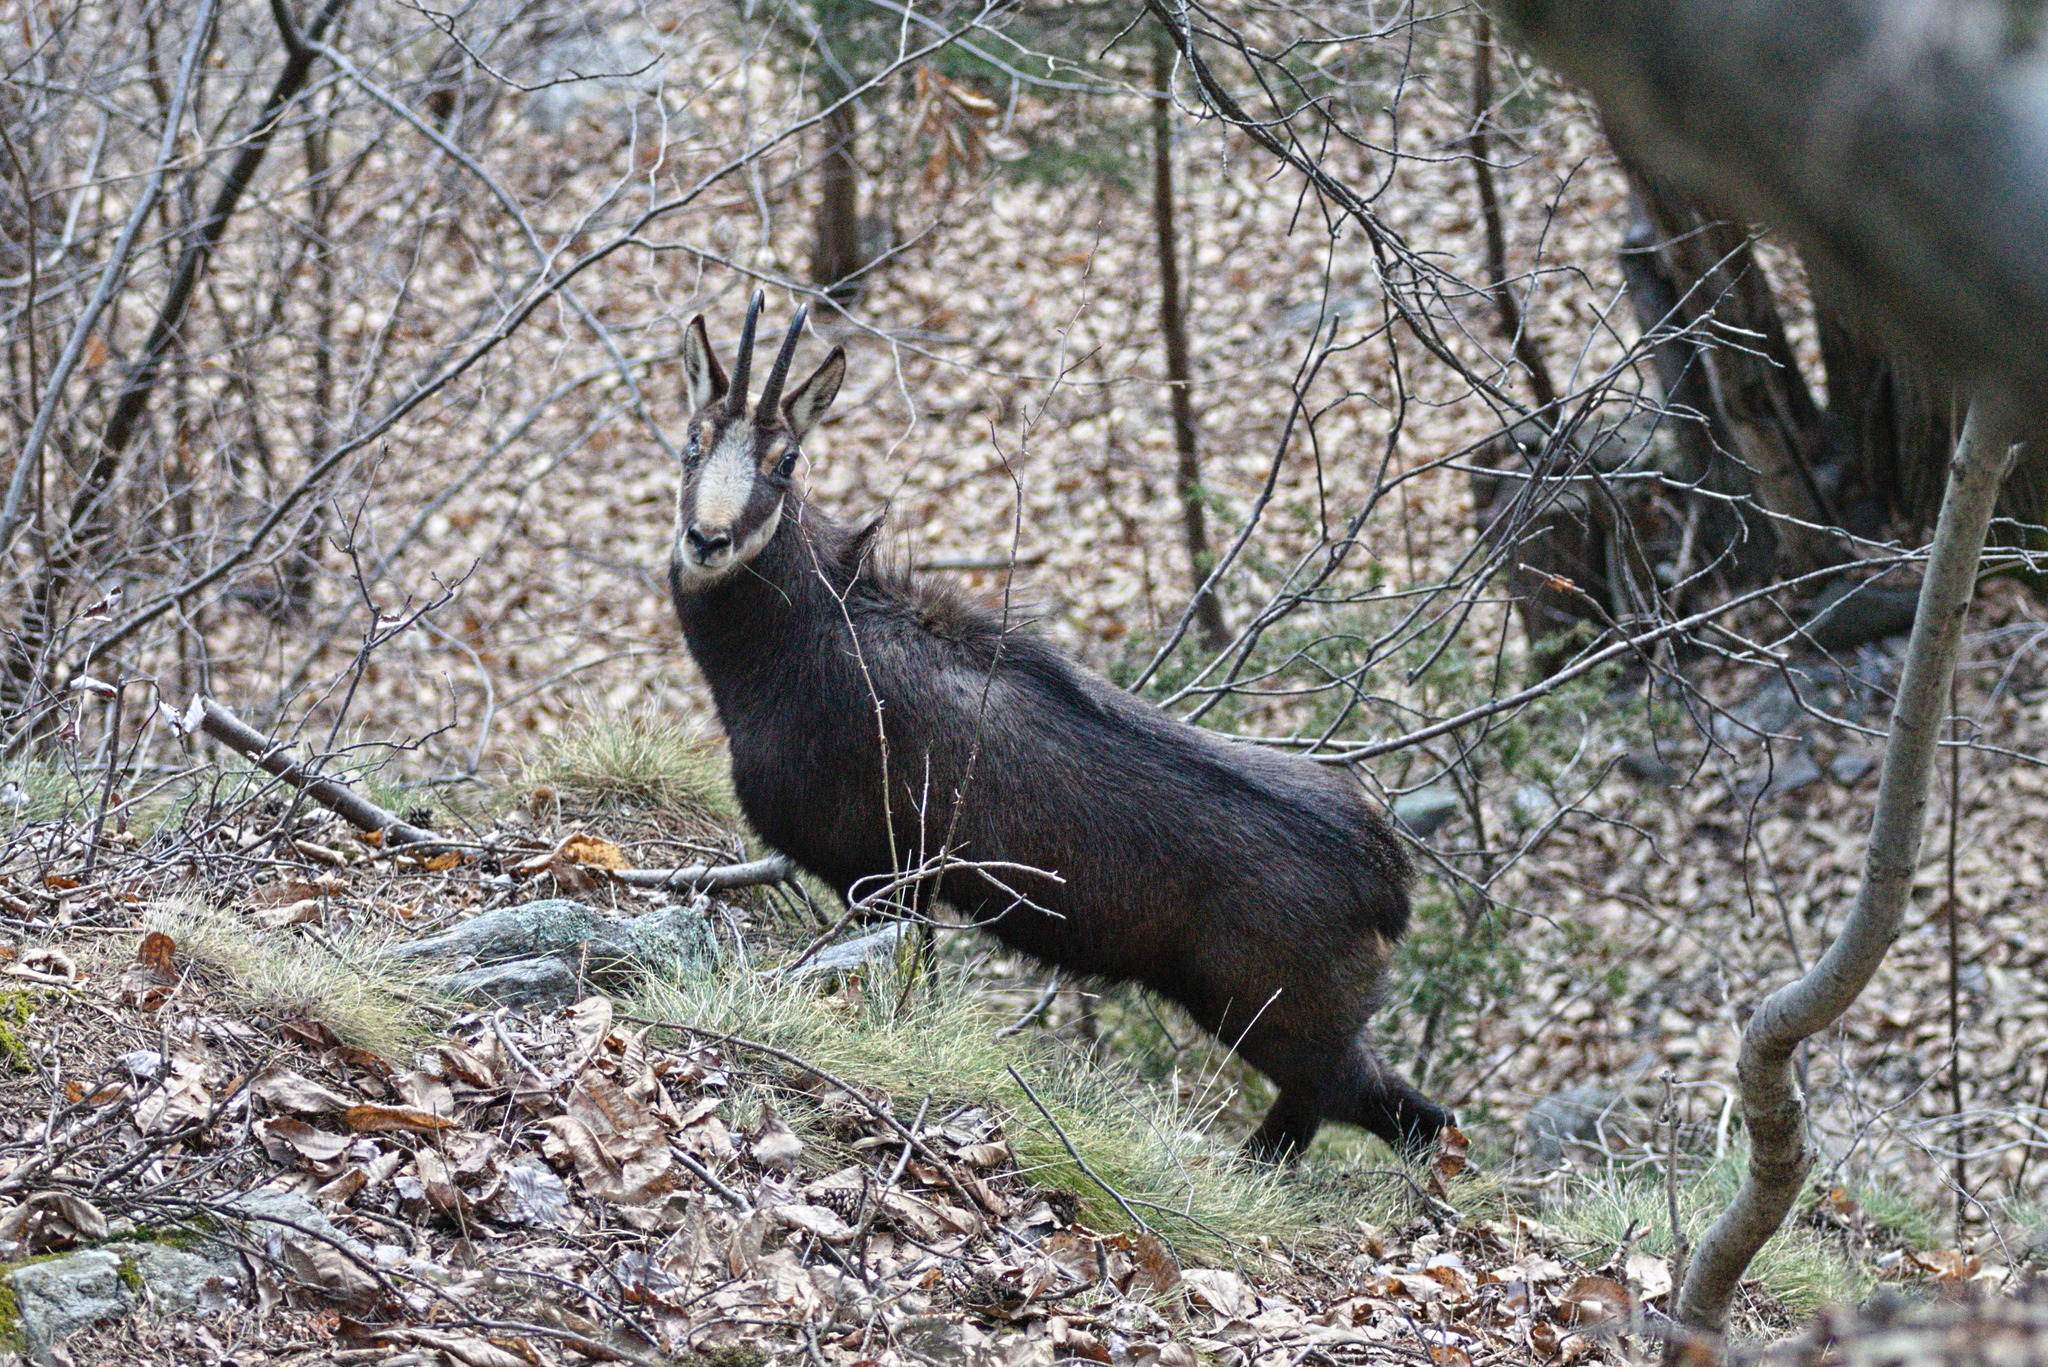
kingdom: Animalia
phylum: Chordata
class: Mammalia
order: Artiodactyla
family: Bovidae
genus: Rupicapra
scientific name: Rupicapra rupicapra
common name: Chamois
